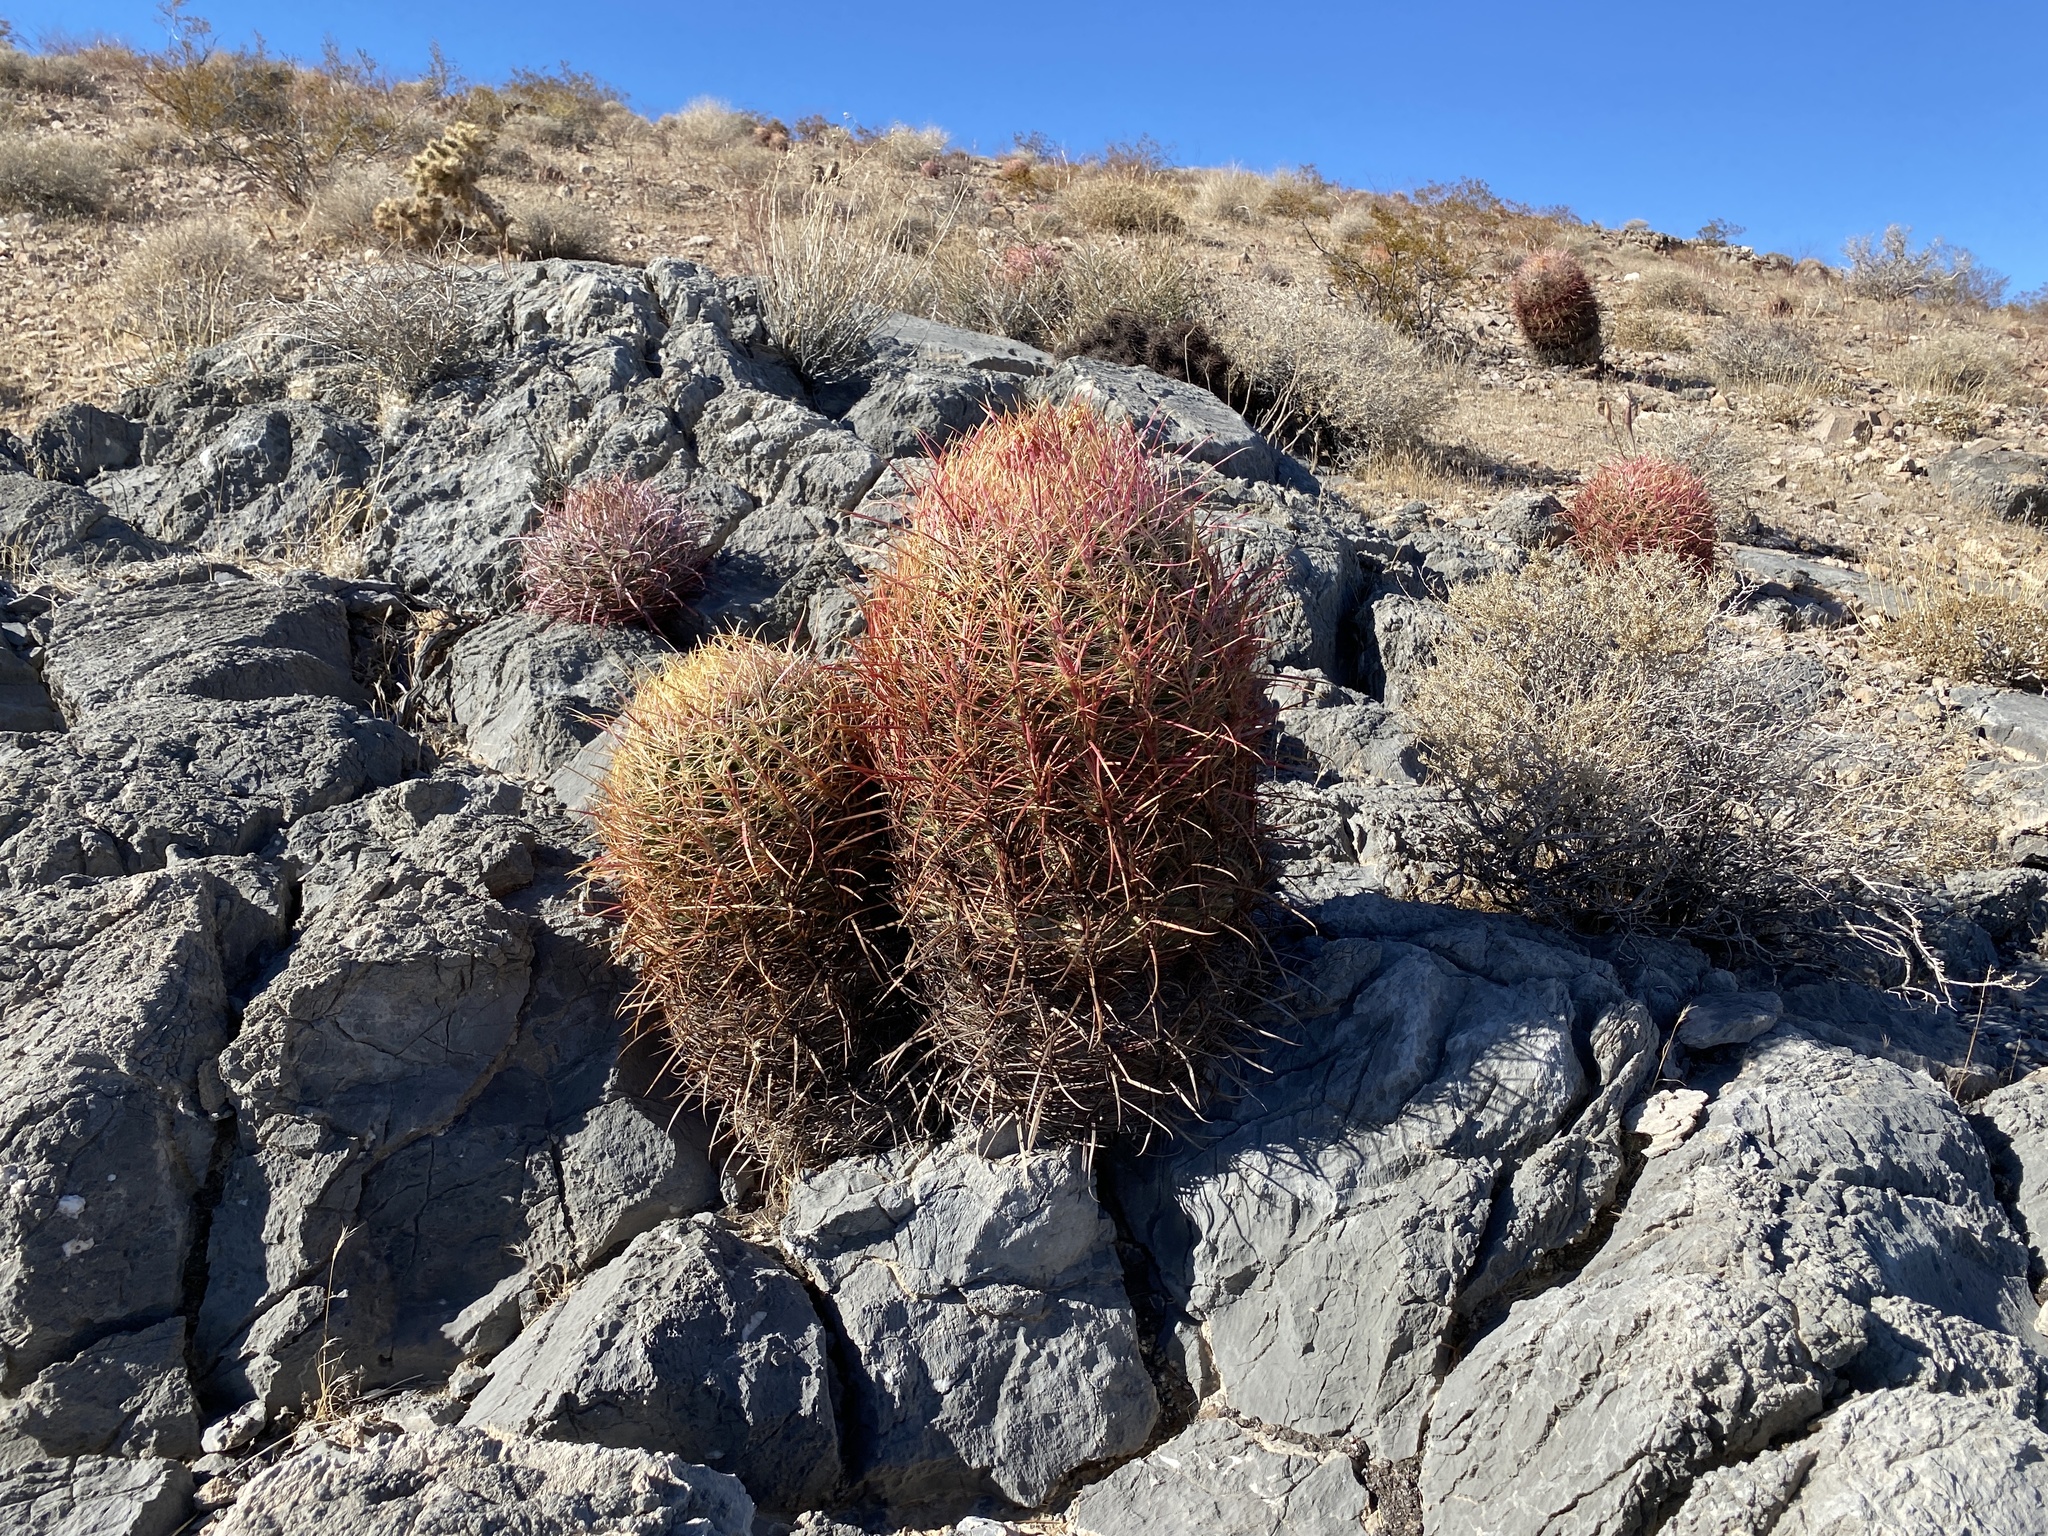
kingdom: Plantae
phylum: Tracheophyta
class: Magnoliopsida
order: Caryophyllales
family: Cactaceae
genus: Ferocactus
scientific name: Ferocactus cylindraceus
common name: California barrel cactus
